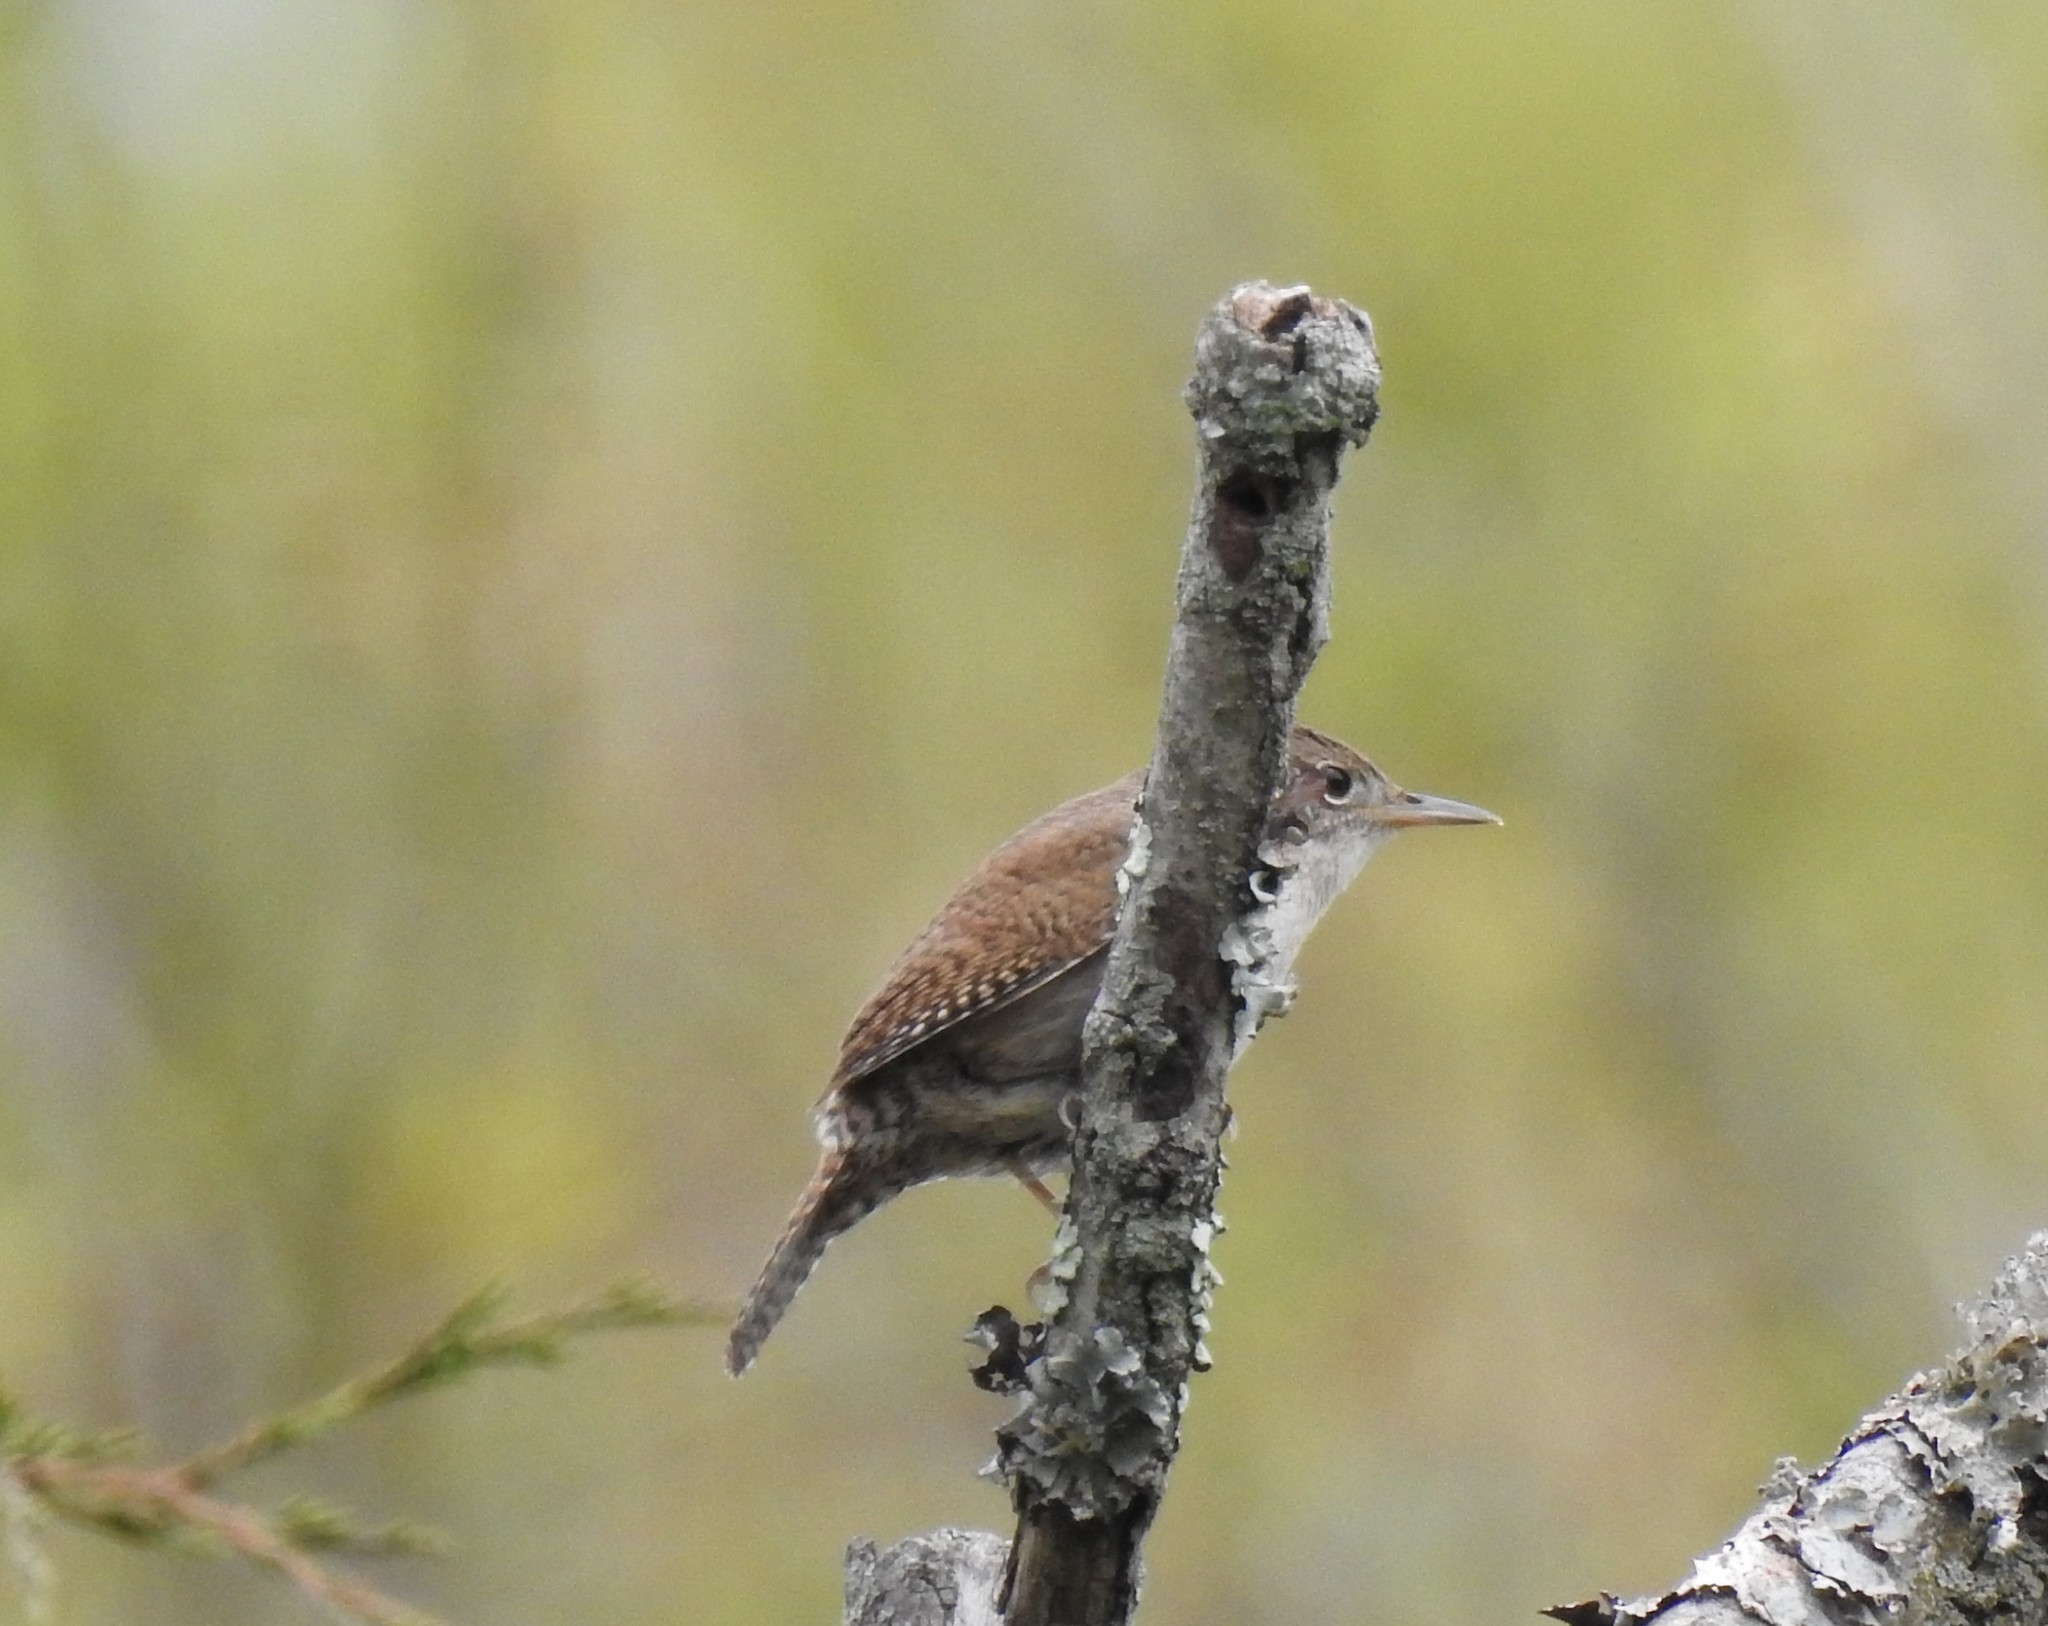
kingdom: Animalia
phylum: Chordata
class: Aves
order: Passeriformes
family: Troglodytidae
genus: Troglodytes
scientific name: Troglodytes aedon
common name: House wren
